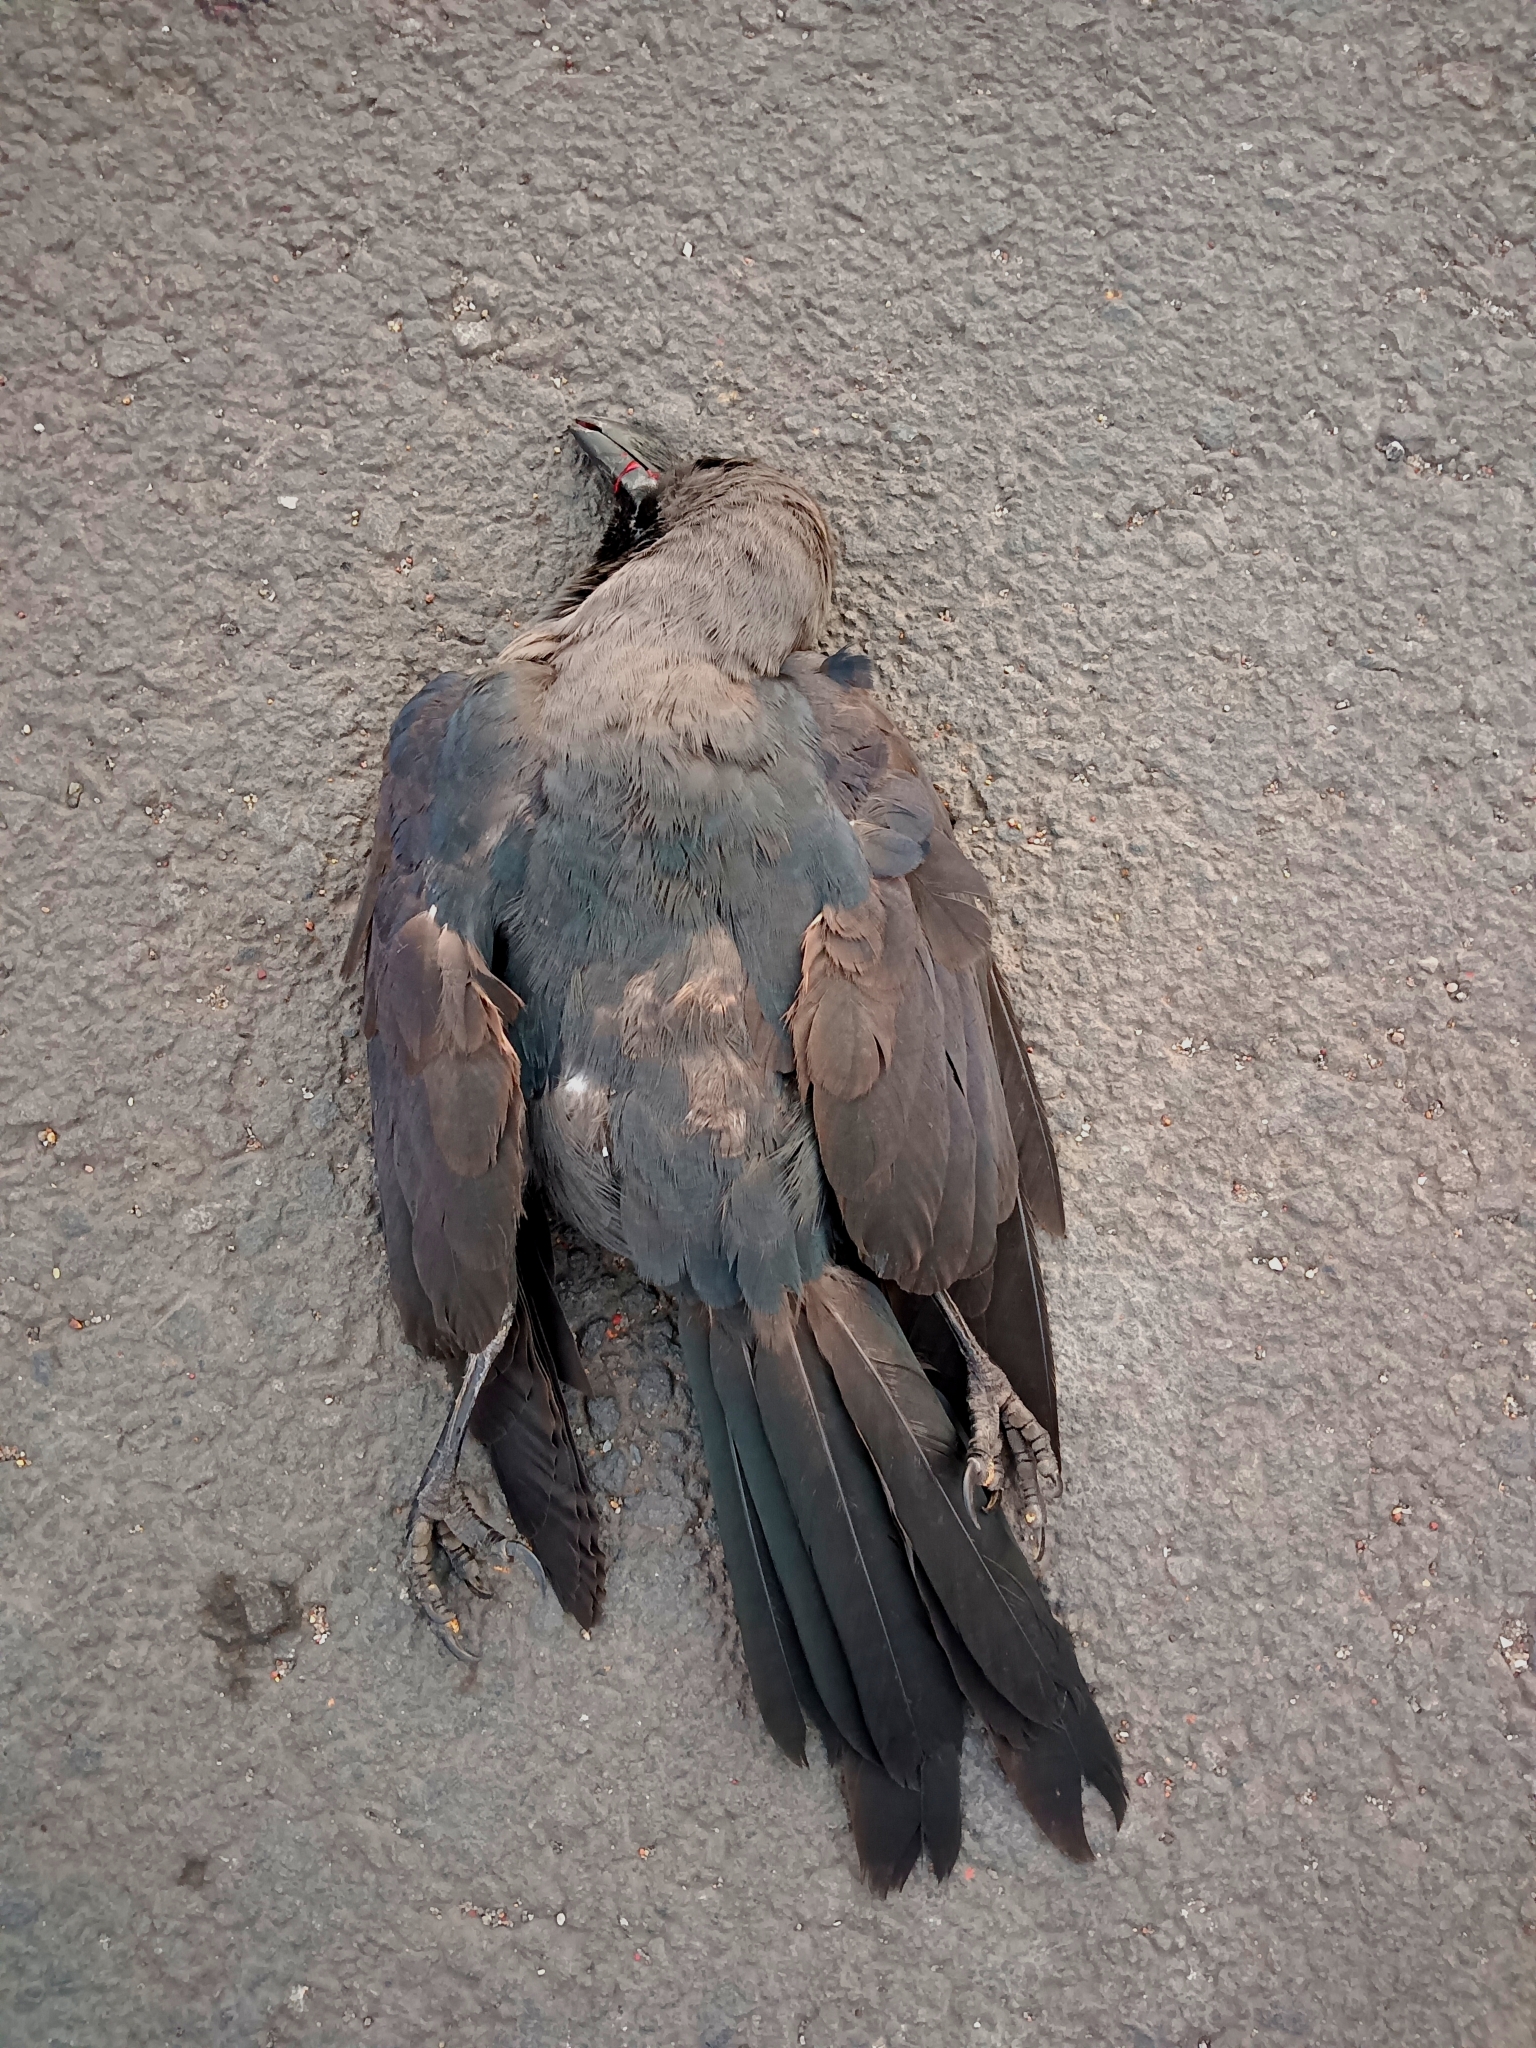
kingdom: Animalia
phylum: Chordata
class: Aves
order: Passeriformes
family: Corvidae
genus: Corvus
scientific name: Corvus splendens
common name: House crow
